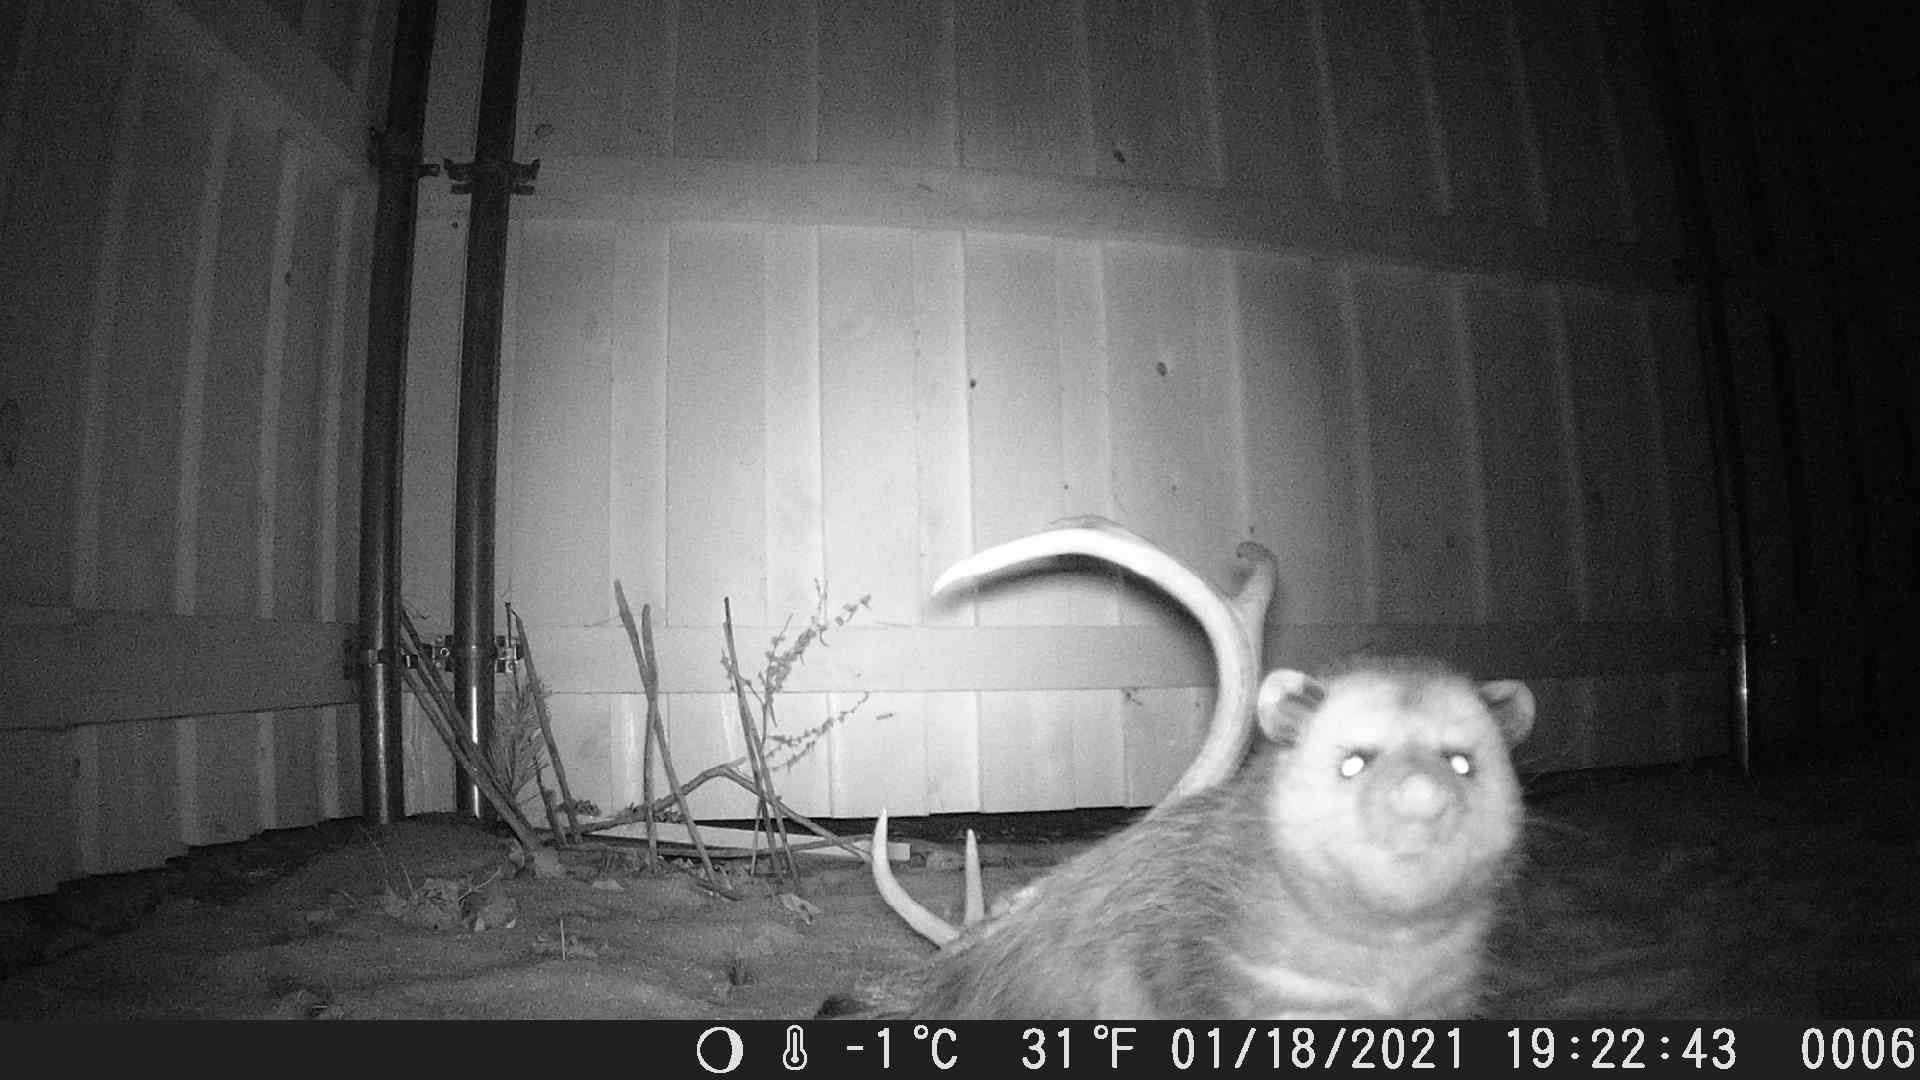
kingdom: Animalia
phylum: Chordata
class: Mammalia
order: Didelphimorphia
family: Didelphidae
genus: Didelphis
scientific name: Didelphis virginiana
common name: Virginia opossum
